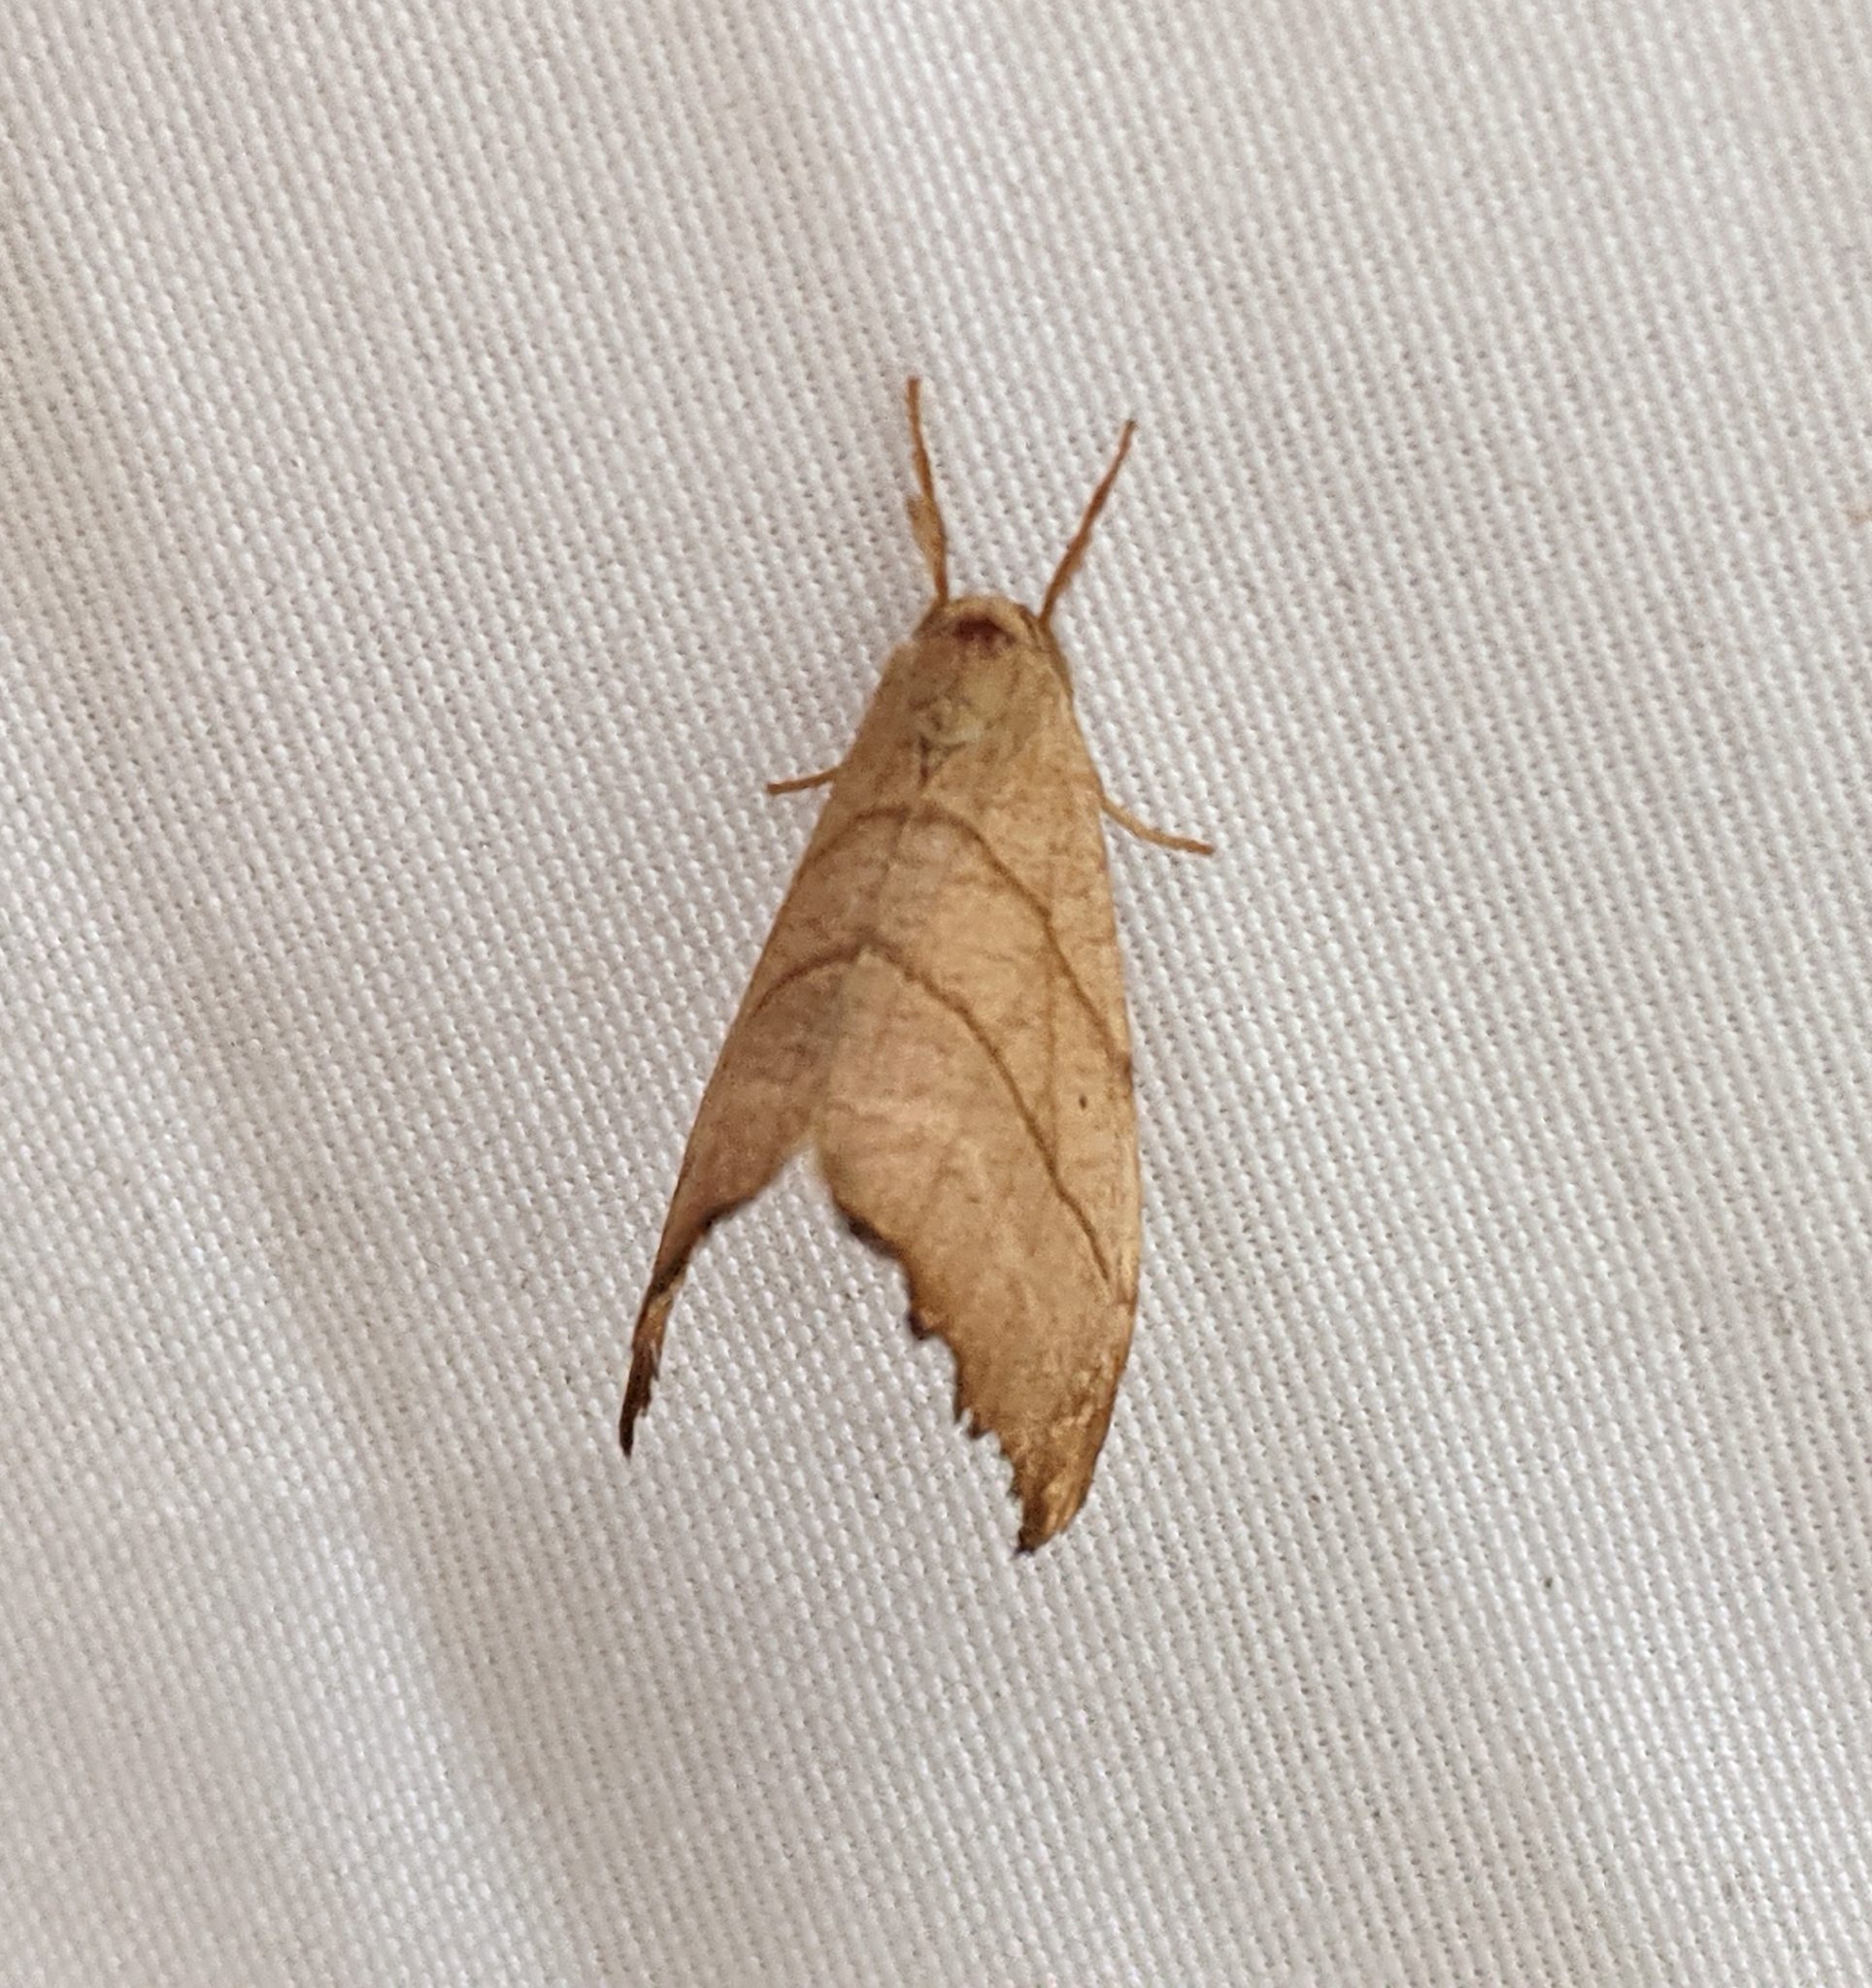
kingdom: Animalia
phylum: Arthropoda
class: Insecta
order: Lepidoptera
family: Drepanidae
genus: Falcaria
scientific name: Falcaria bilineata
